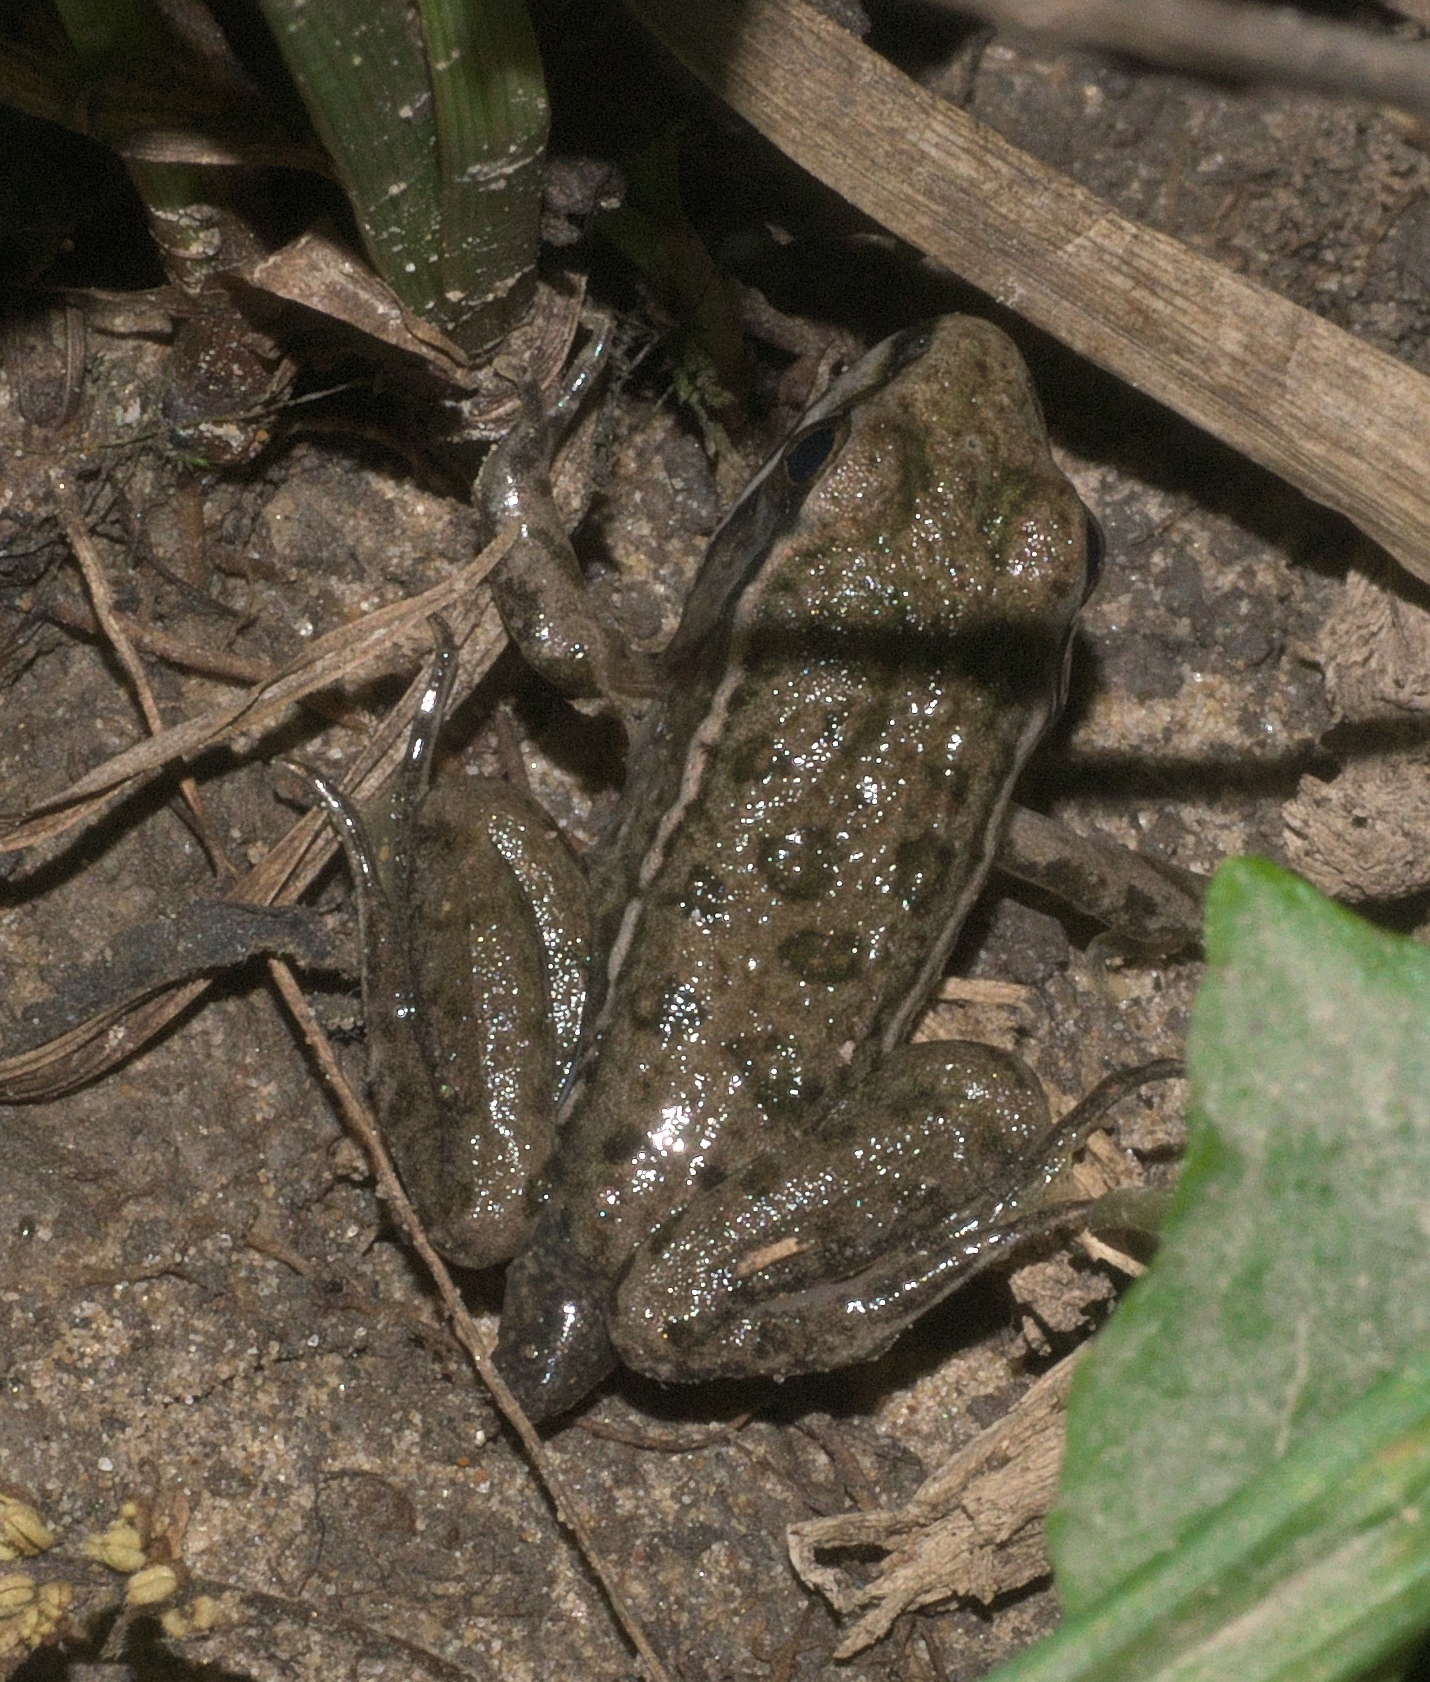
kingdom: Animalia
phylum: Chordata
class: Amphibia
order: Anura
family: Ranidae
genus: Lithobates
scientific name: Lithobates sphenocephalus
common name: Southern leopard frog
